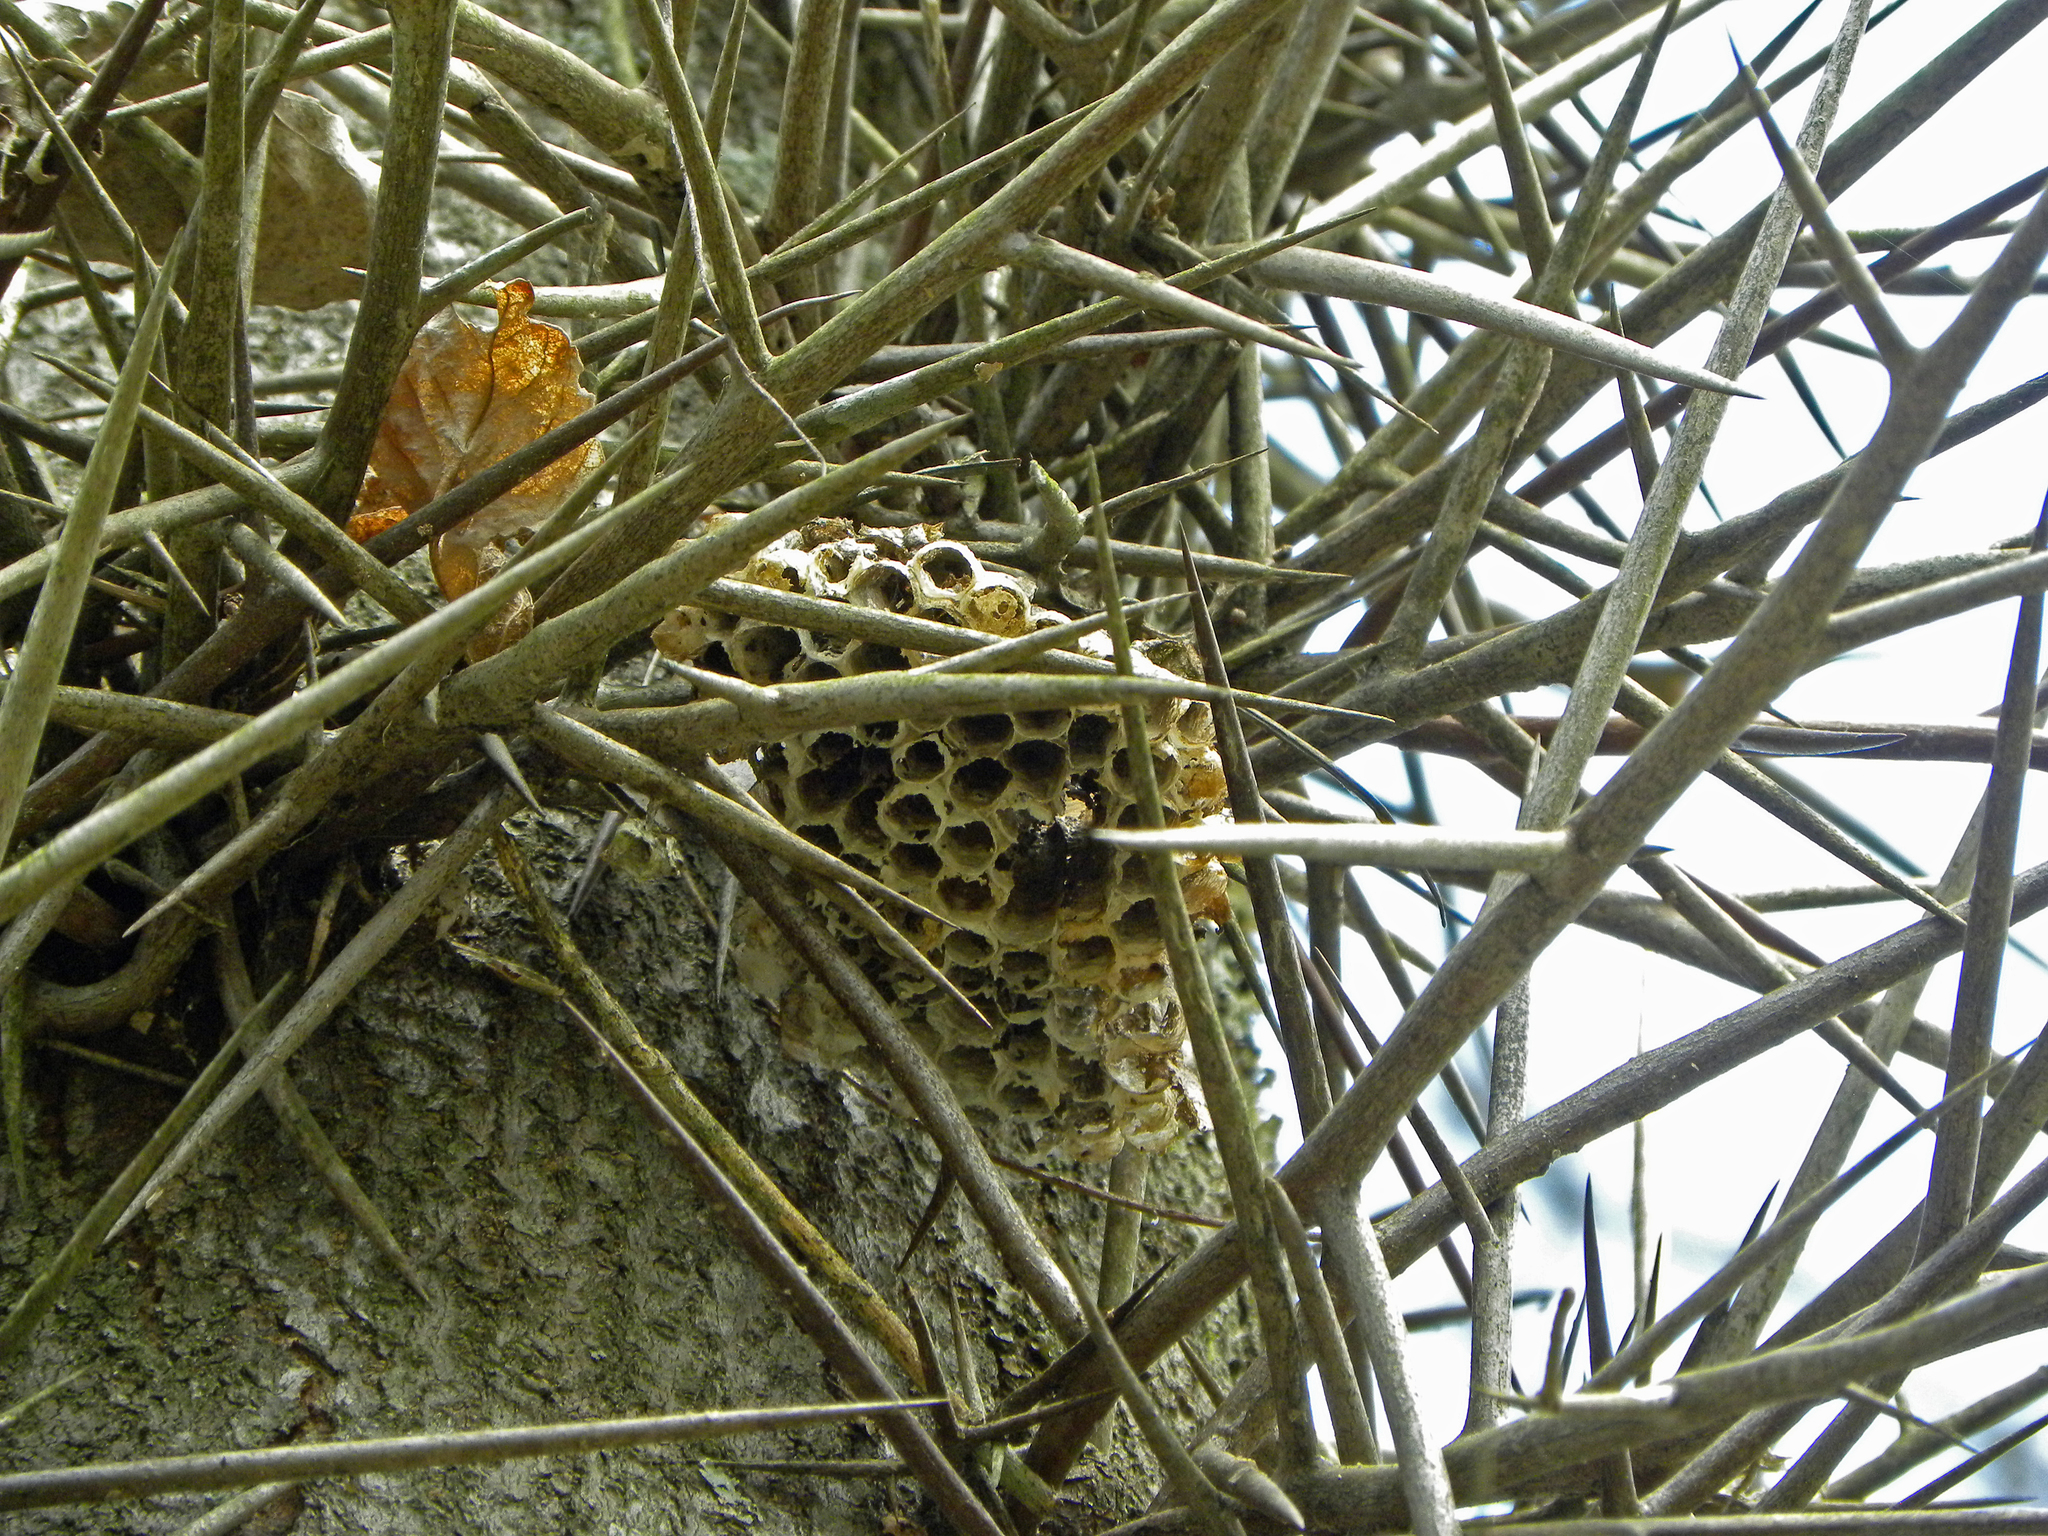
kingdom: Plantae
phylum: Tracheophyta
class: Magnoliopsida
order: Fabales
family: Fabaceae
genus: Gleditsia
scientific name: Gleditsia triacanthos
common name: Common honeylocust
